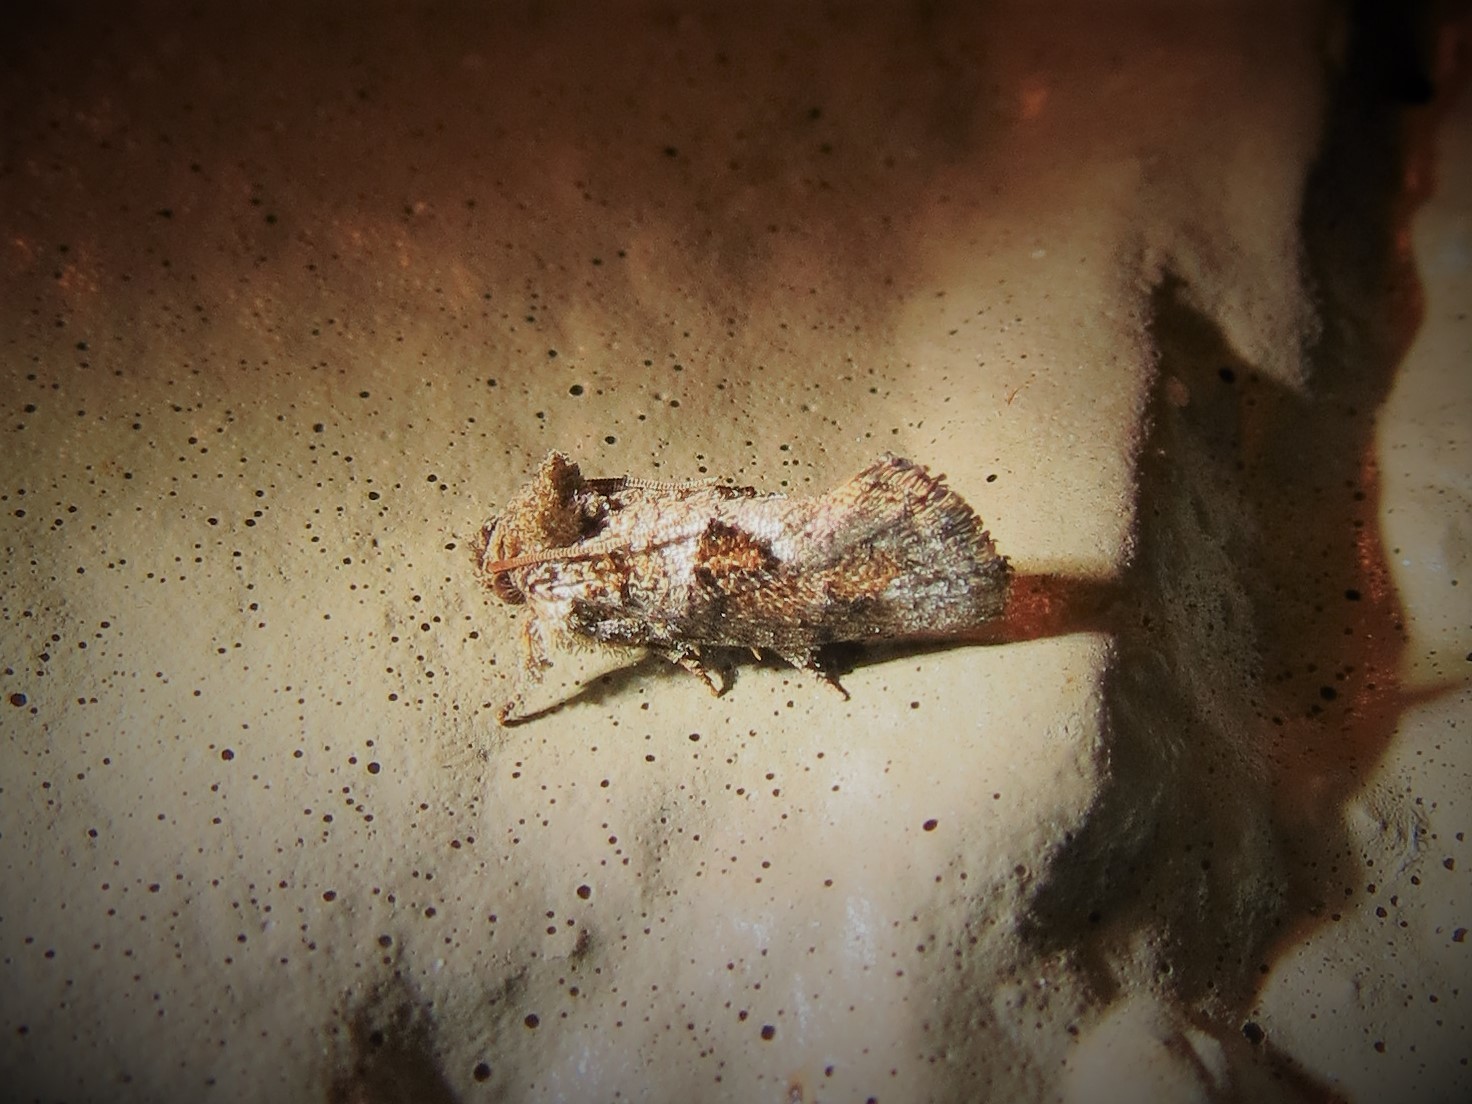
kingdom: Animalia
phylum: Arthropoda
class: Insecta
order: Lepidoptera
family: Tineidae
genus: Acrolophus
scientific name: Acrolophus piger
